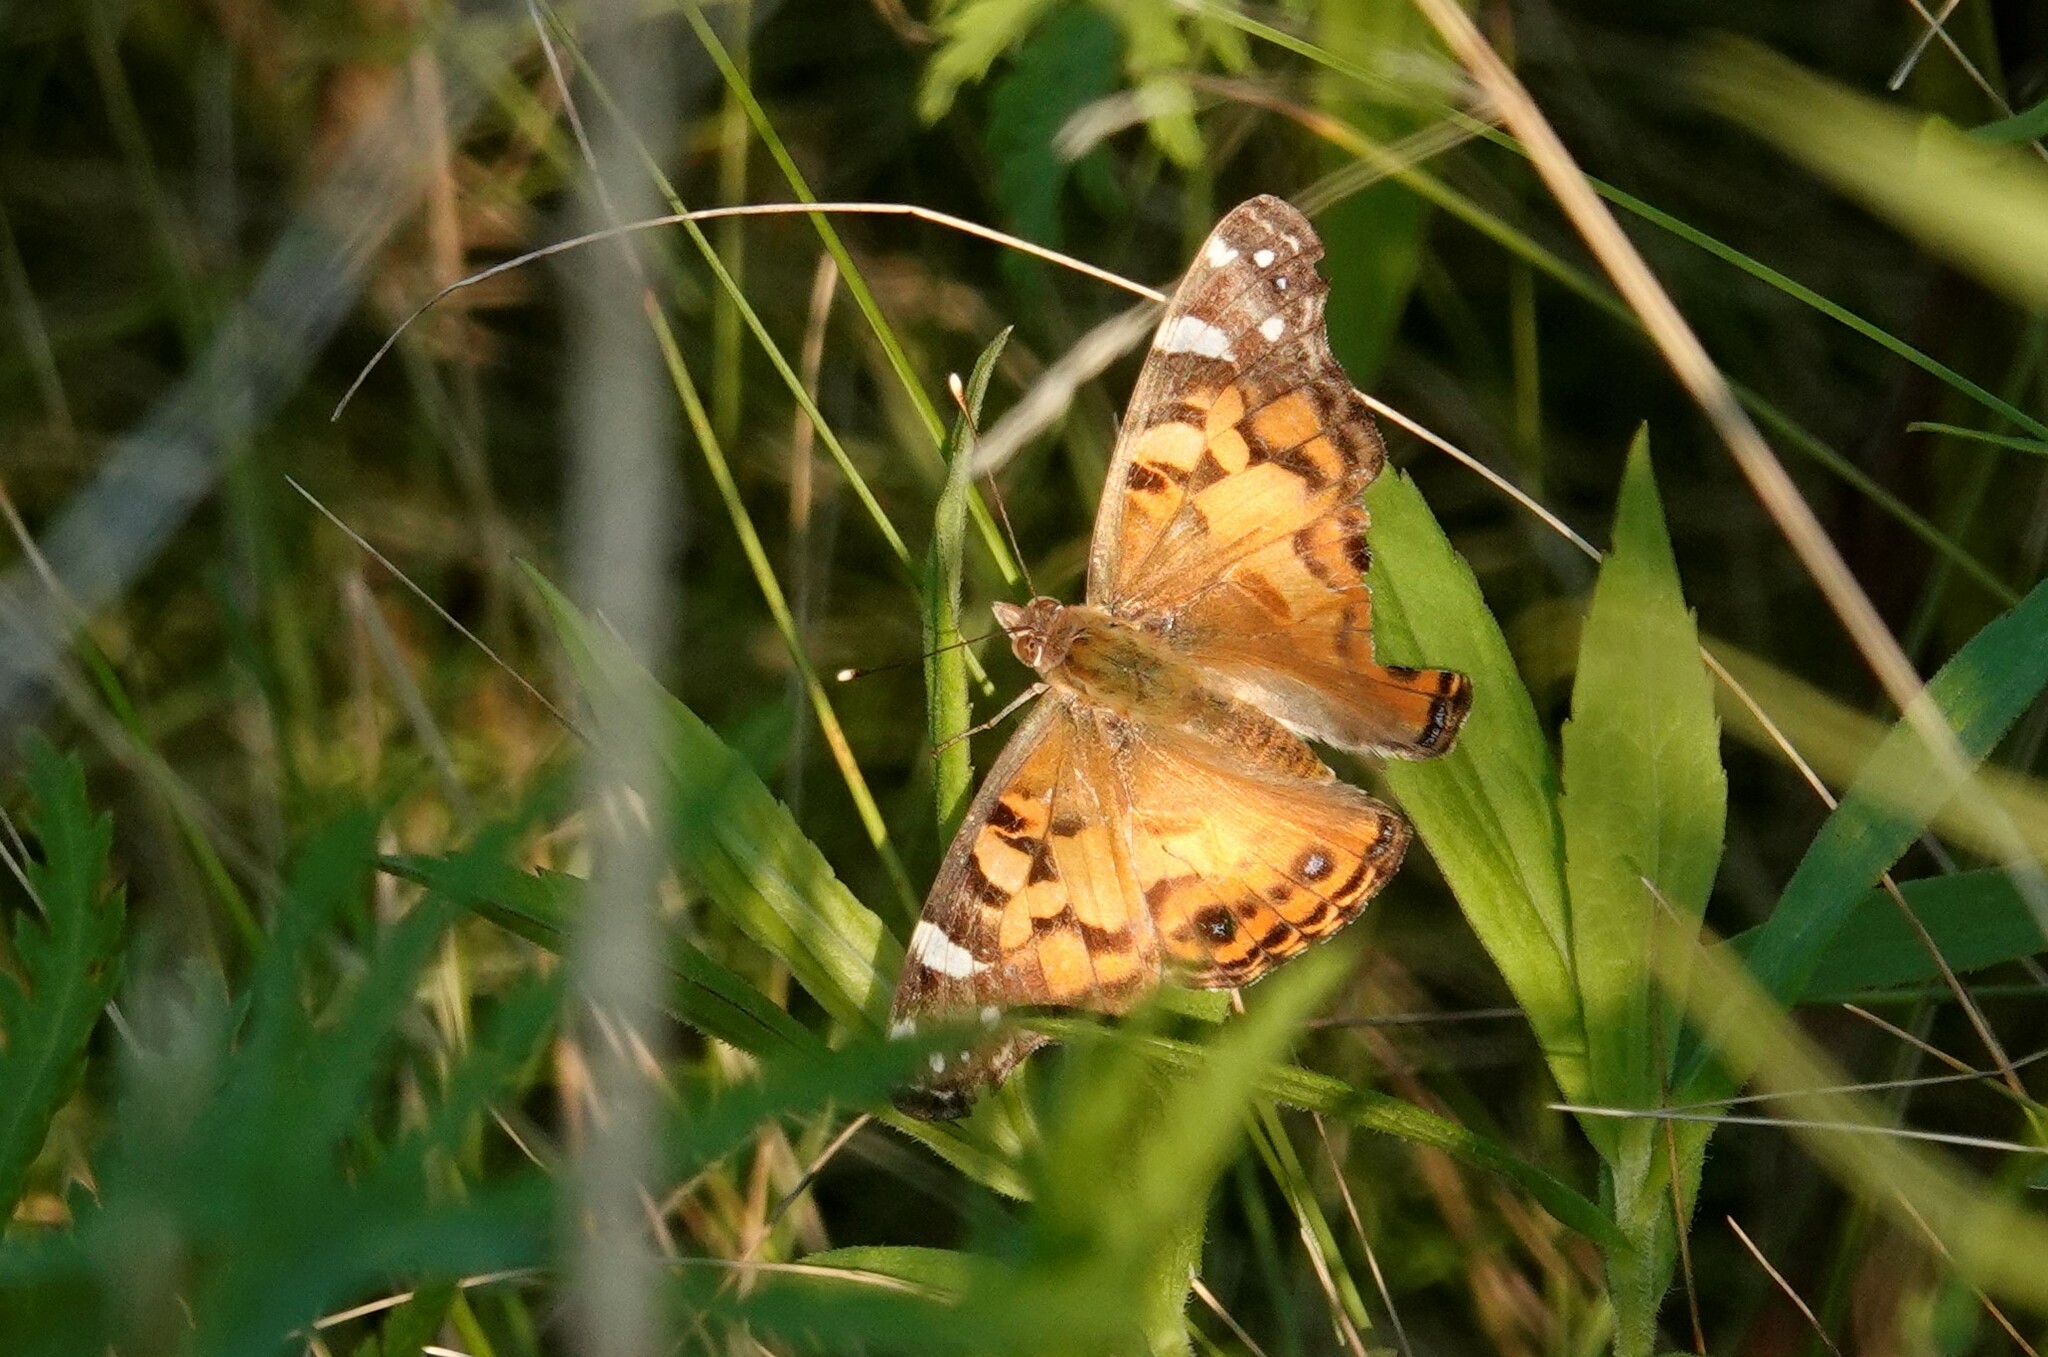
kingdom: Animalia
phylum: Arthropoda
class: Insecta
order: Lepidoptera
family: Nymphalidae
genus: Vanessa
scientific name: Vanessa virginiensis
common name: American lady
